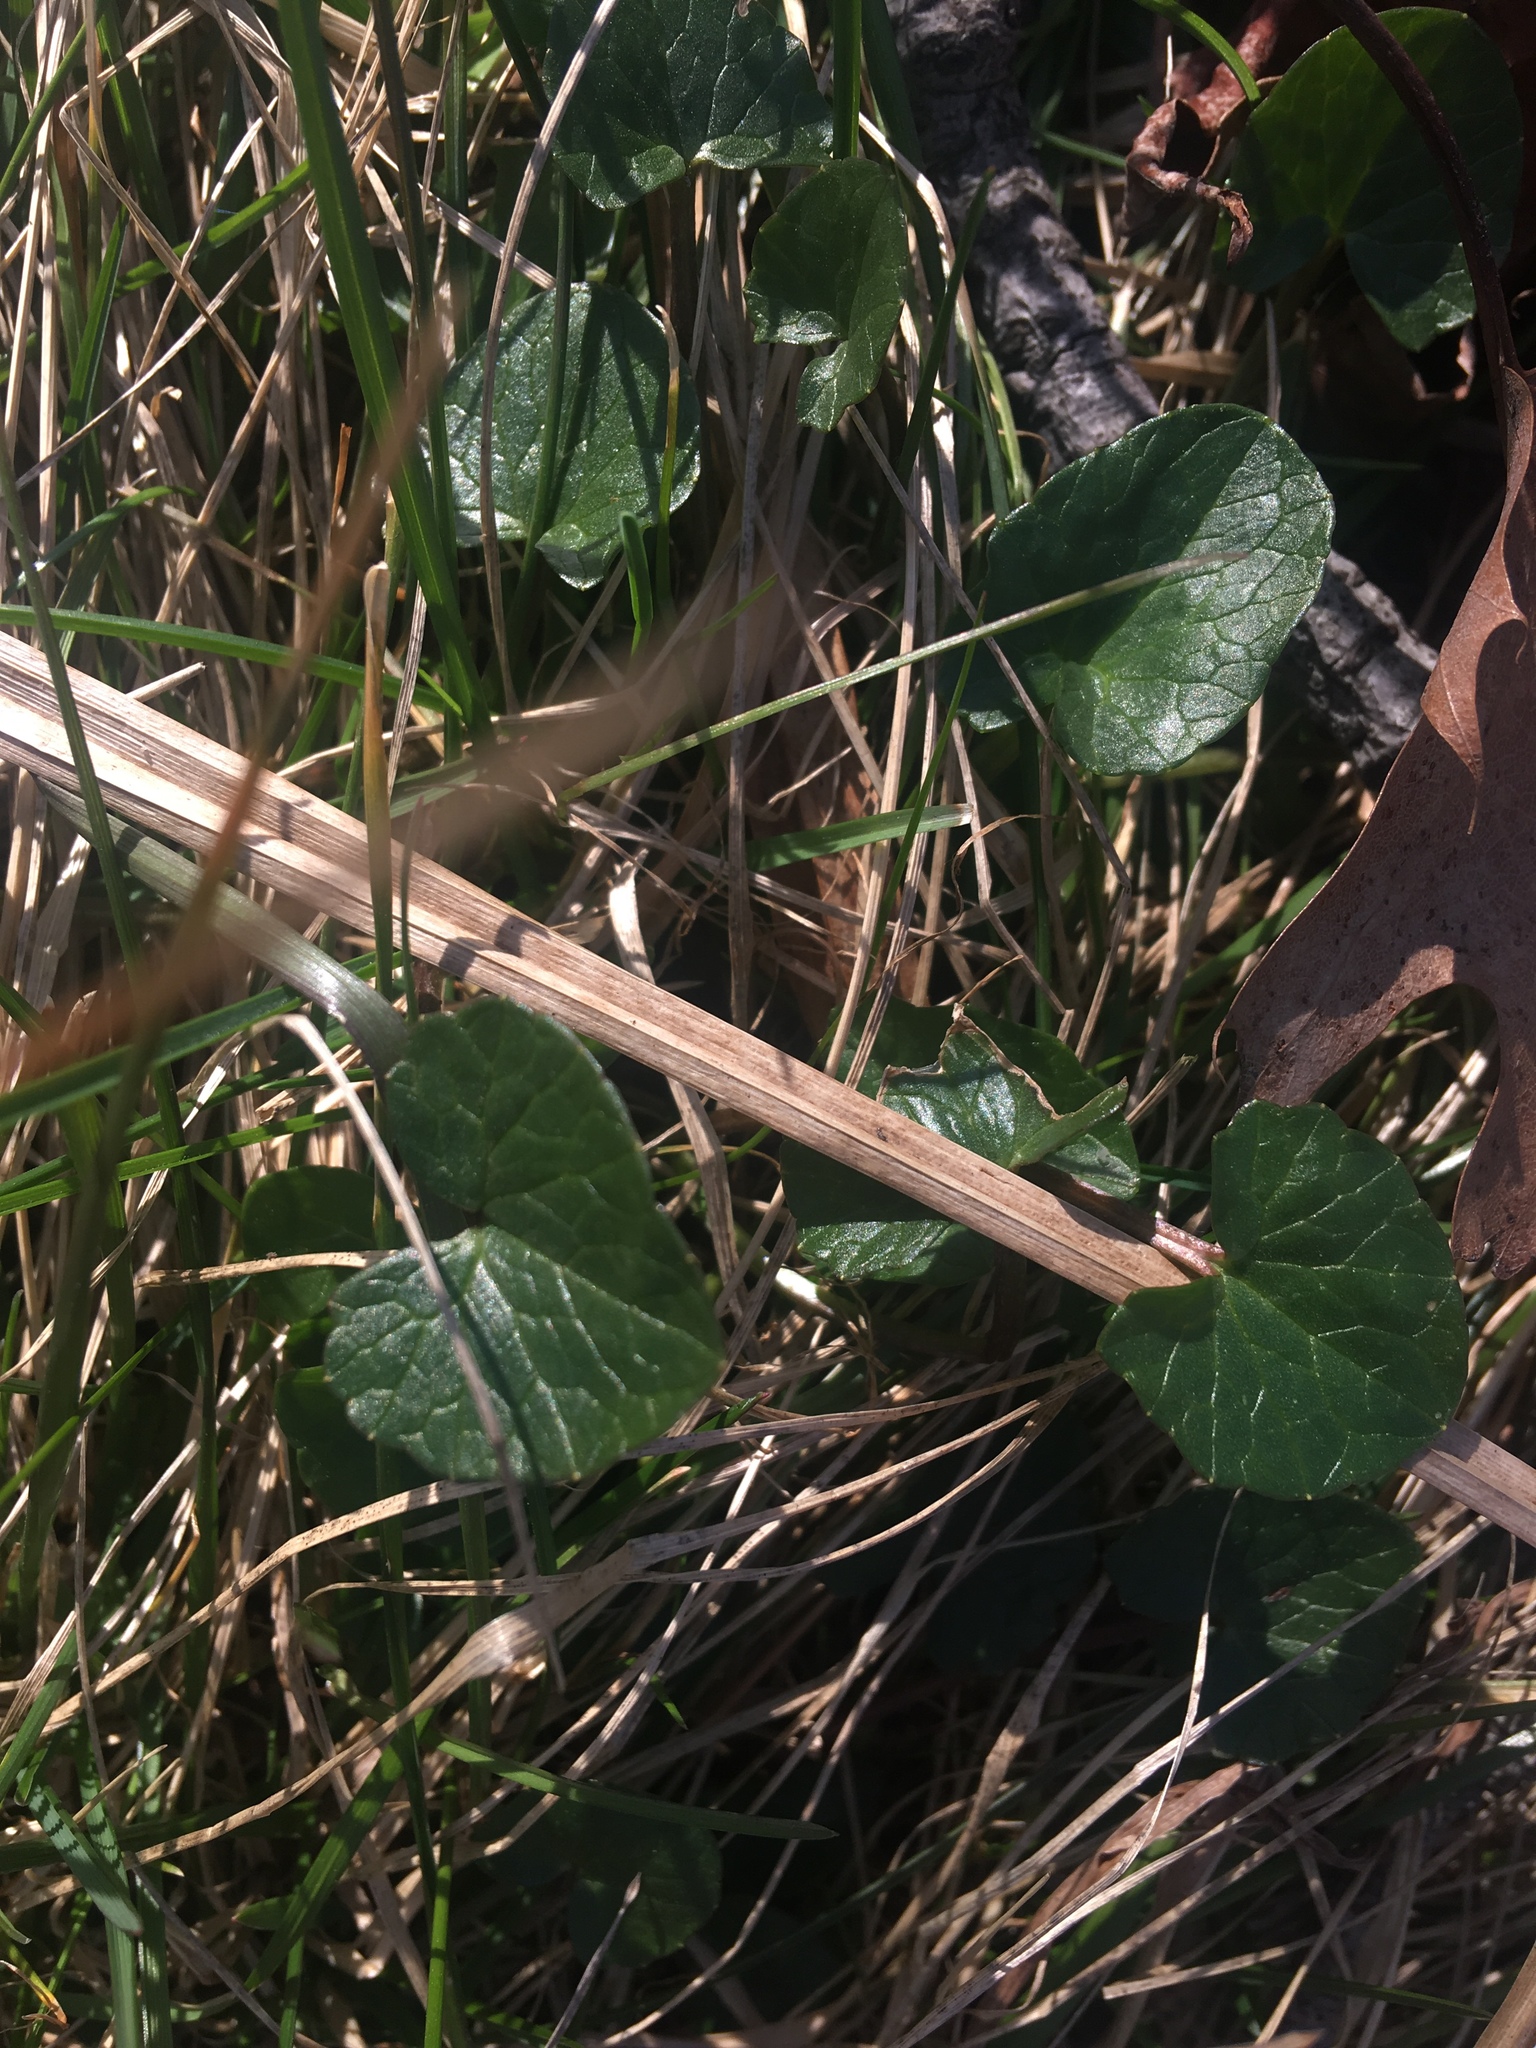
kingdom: Plantae
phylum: Tracheophyta
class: Magnoliopsida
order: Ranunculales
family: Ranunculaceae
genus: Ficaria
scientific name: Ficaria verna
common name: Lesser celandine
